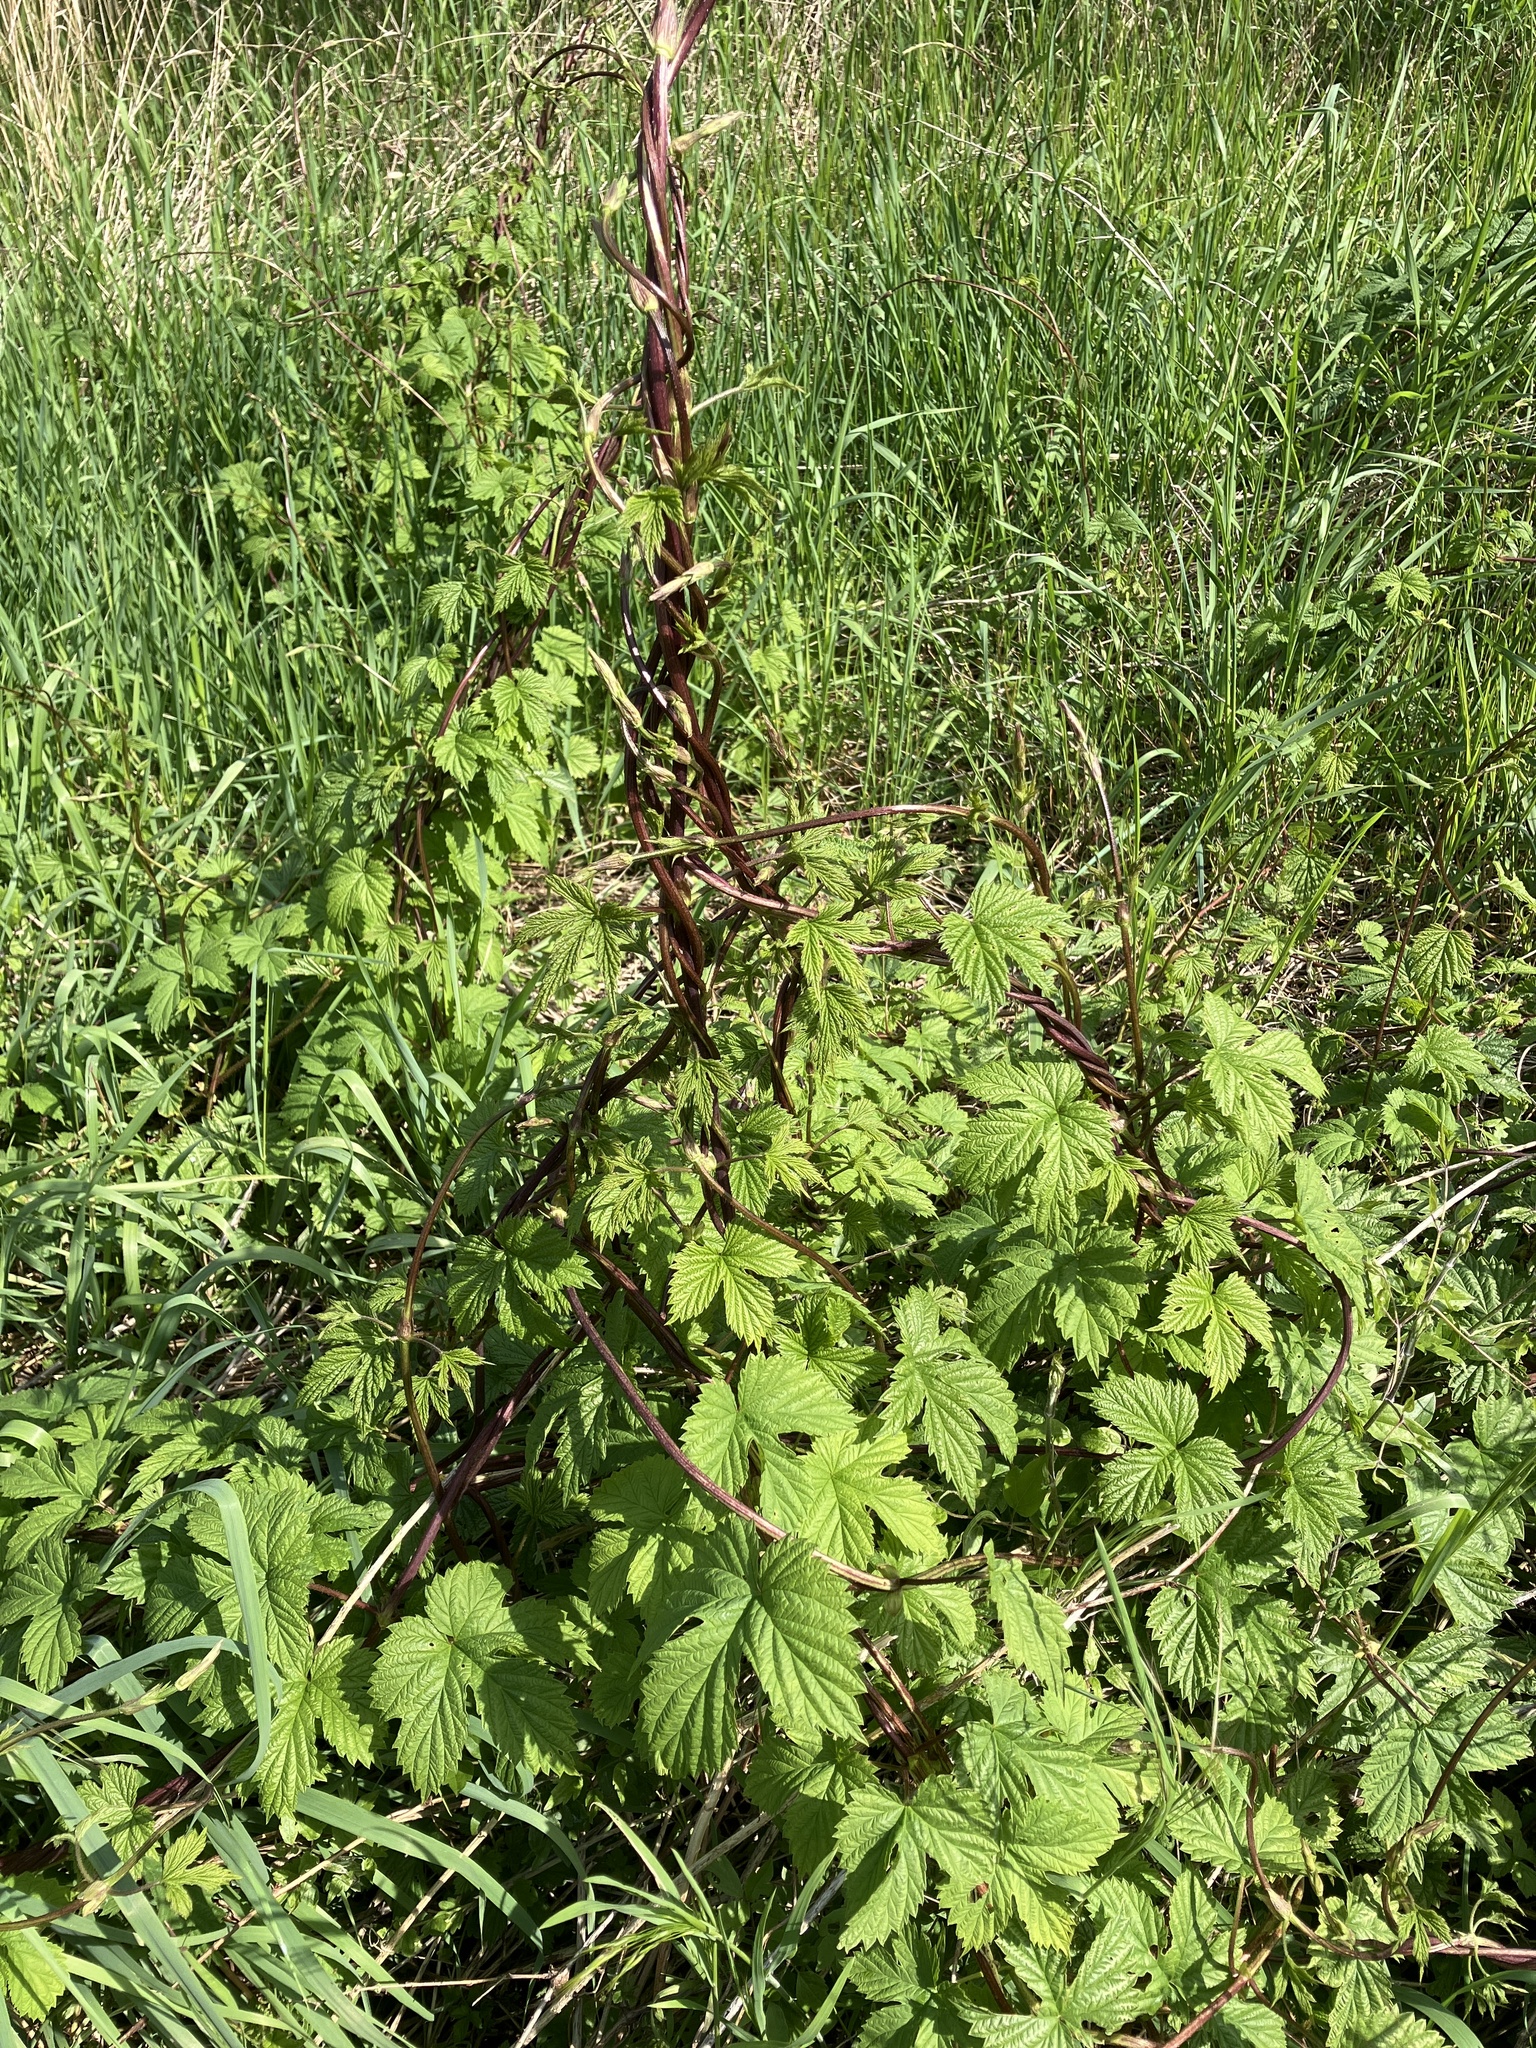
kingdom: Plantae
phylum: Tracheophyta
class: Magnoliopsida
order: Rosales
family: Cannabaceae
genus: Humulus
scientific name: Humulus lupulus
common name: Hop
